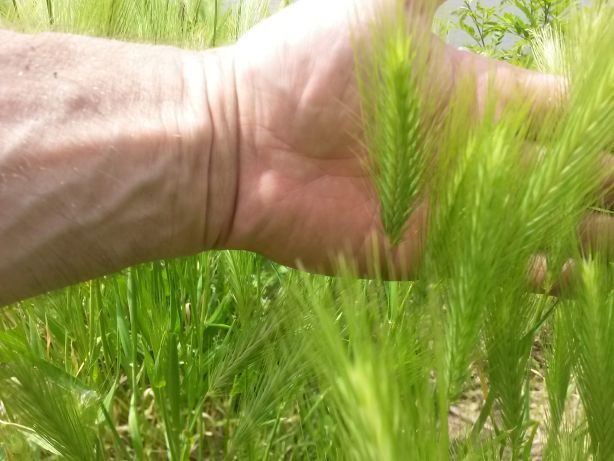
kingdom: Plantae
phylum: Tracheophyta
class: Liliopsida
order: Poales
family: Poaceae
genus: Hordeum
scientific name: Hordeum murinum
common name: Wall barley
